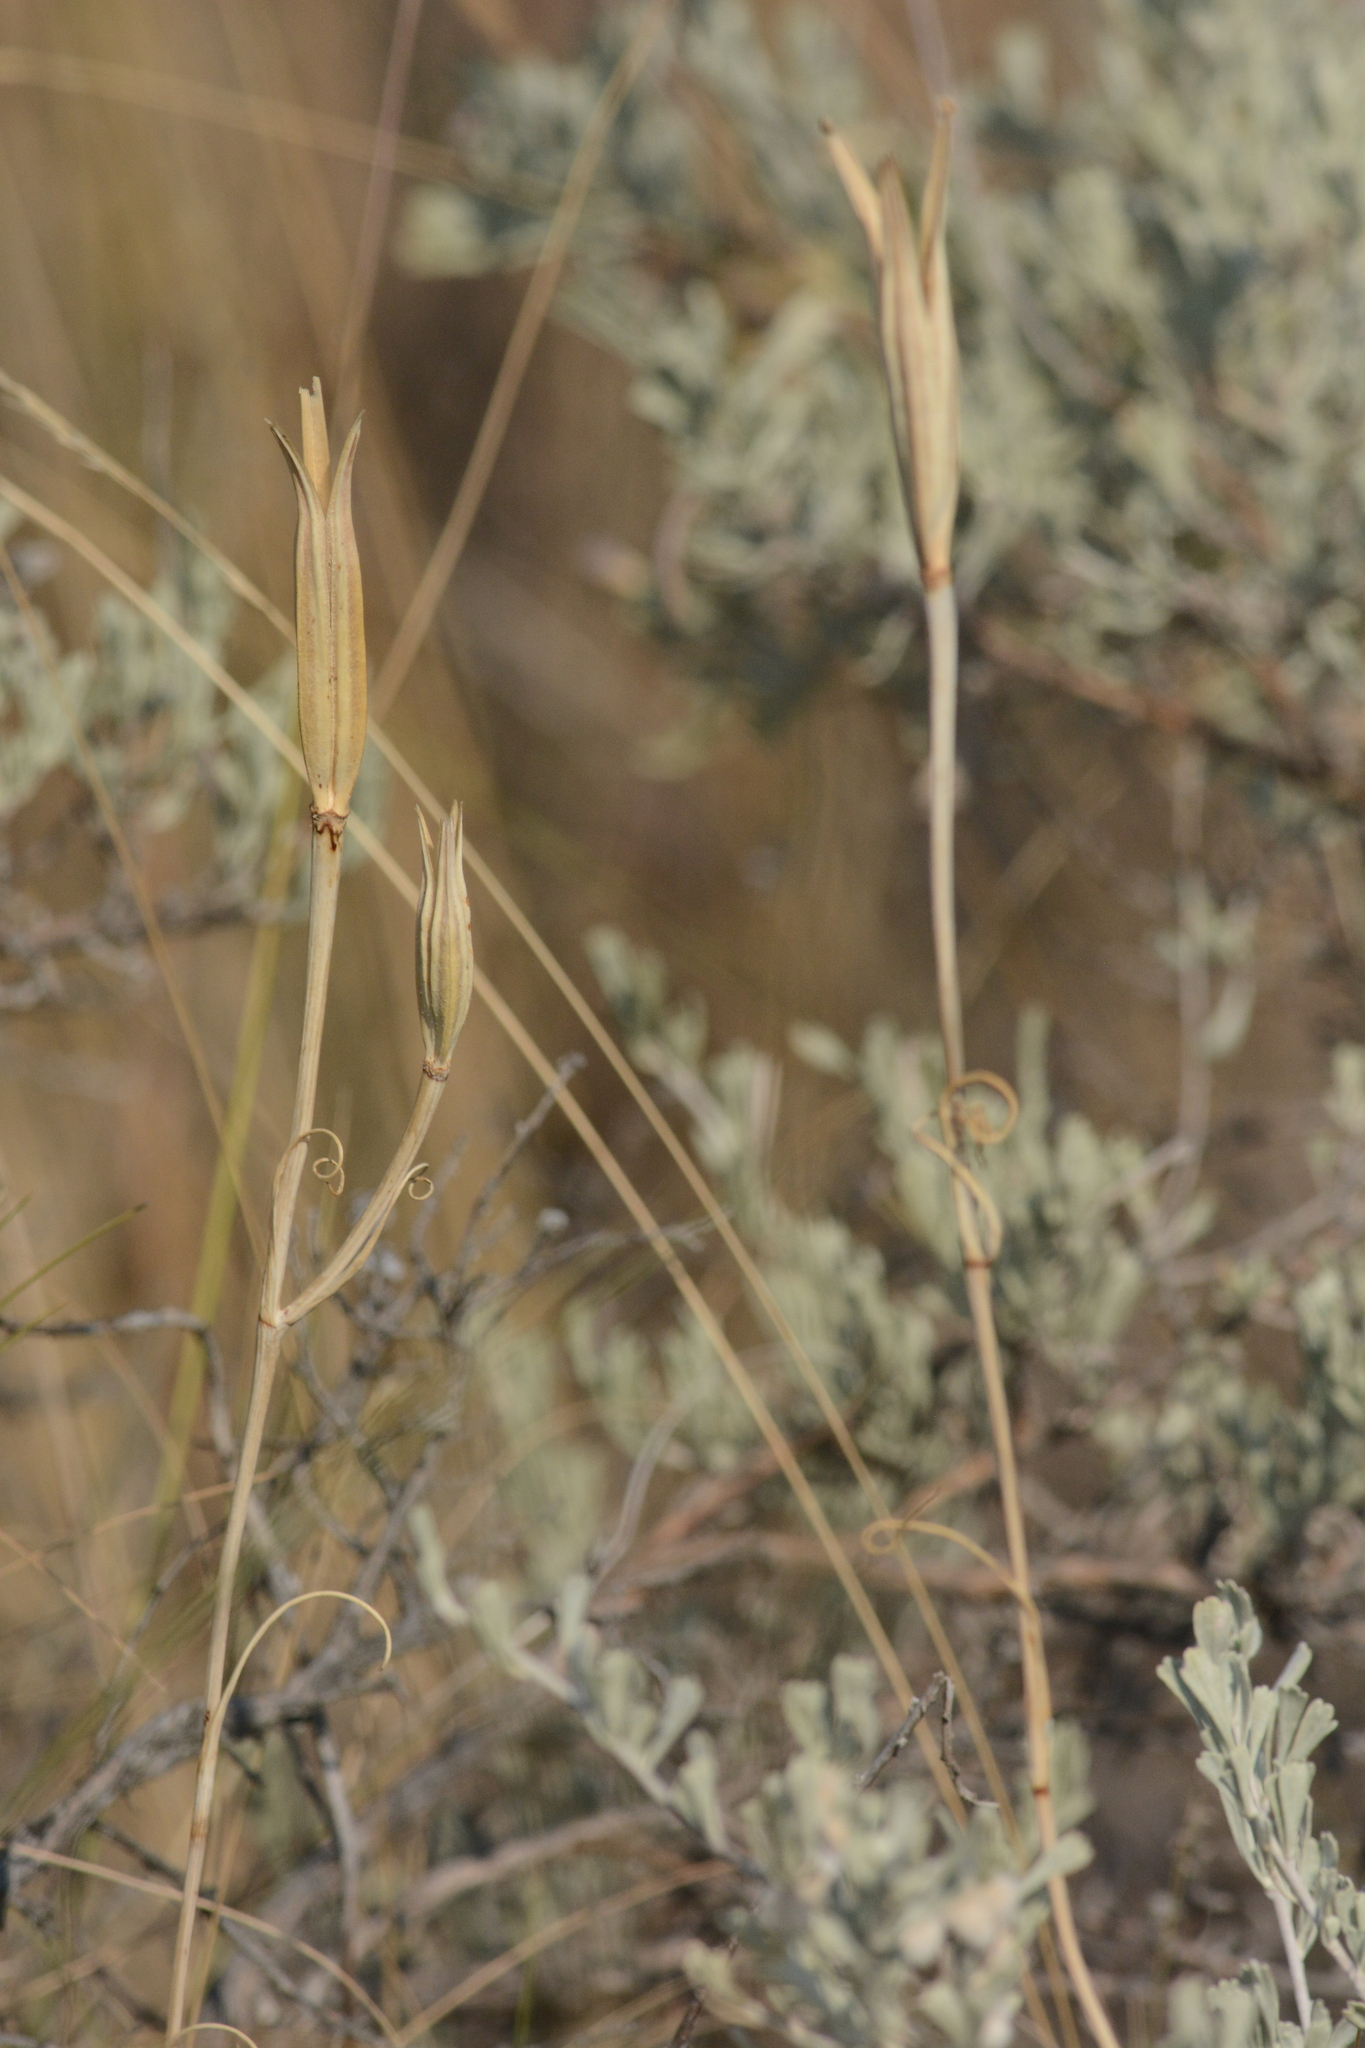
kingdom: Plantae
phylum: Tracheophyta
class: Liliopsida
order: Liliales
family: Liliaceae
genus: Calochortus
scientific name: Calochortus macrocarpus
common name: Green-band mariposa lily
